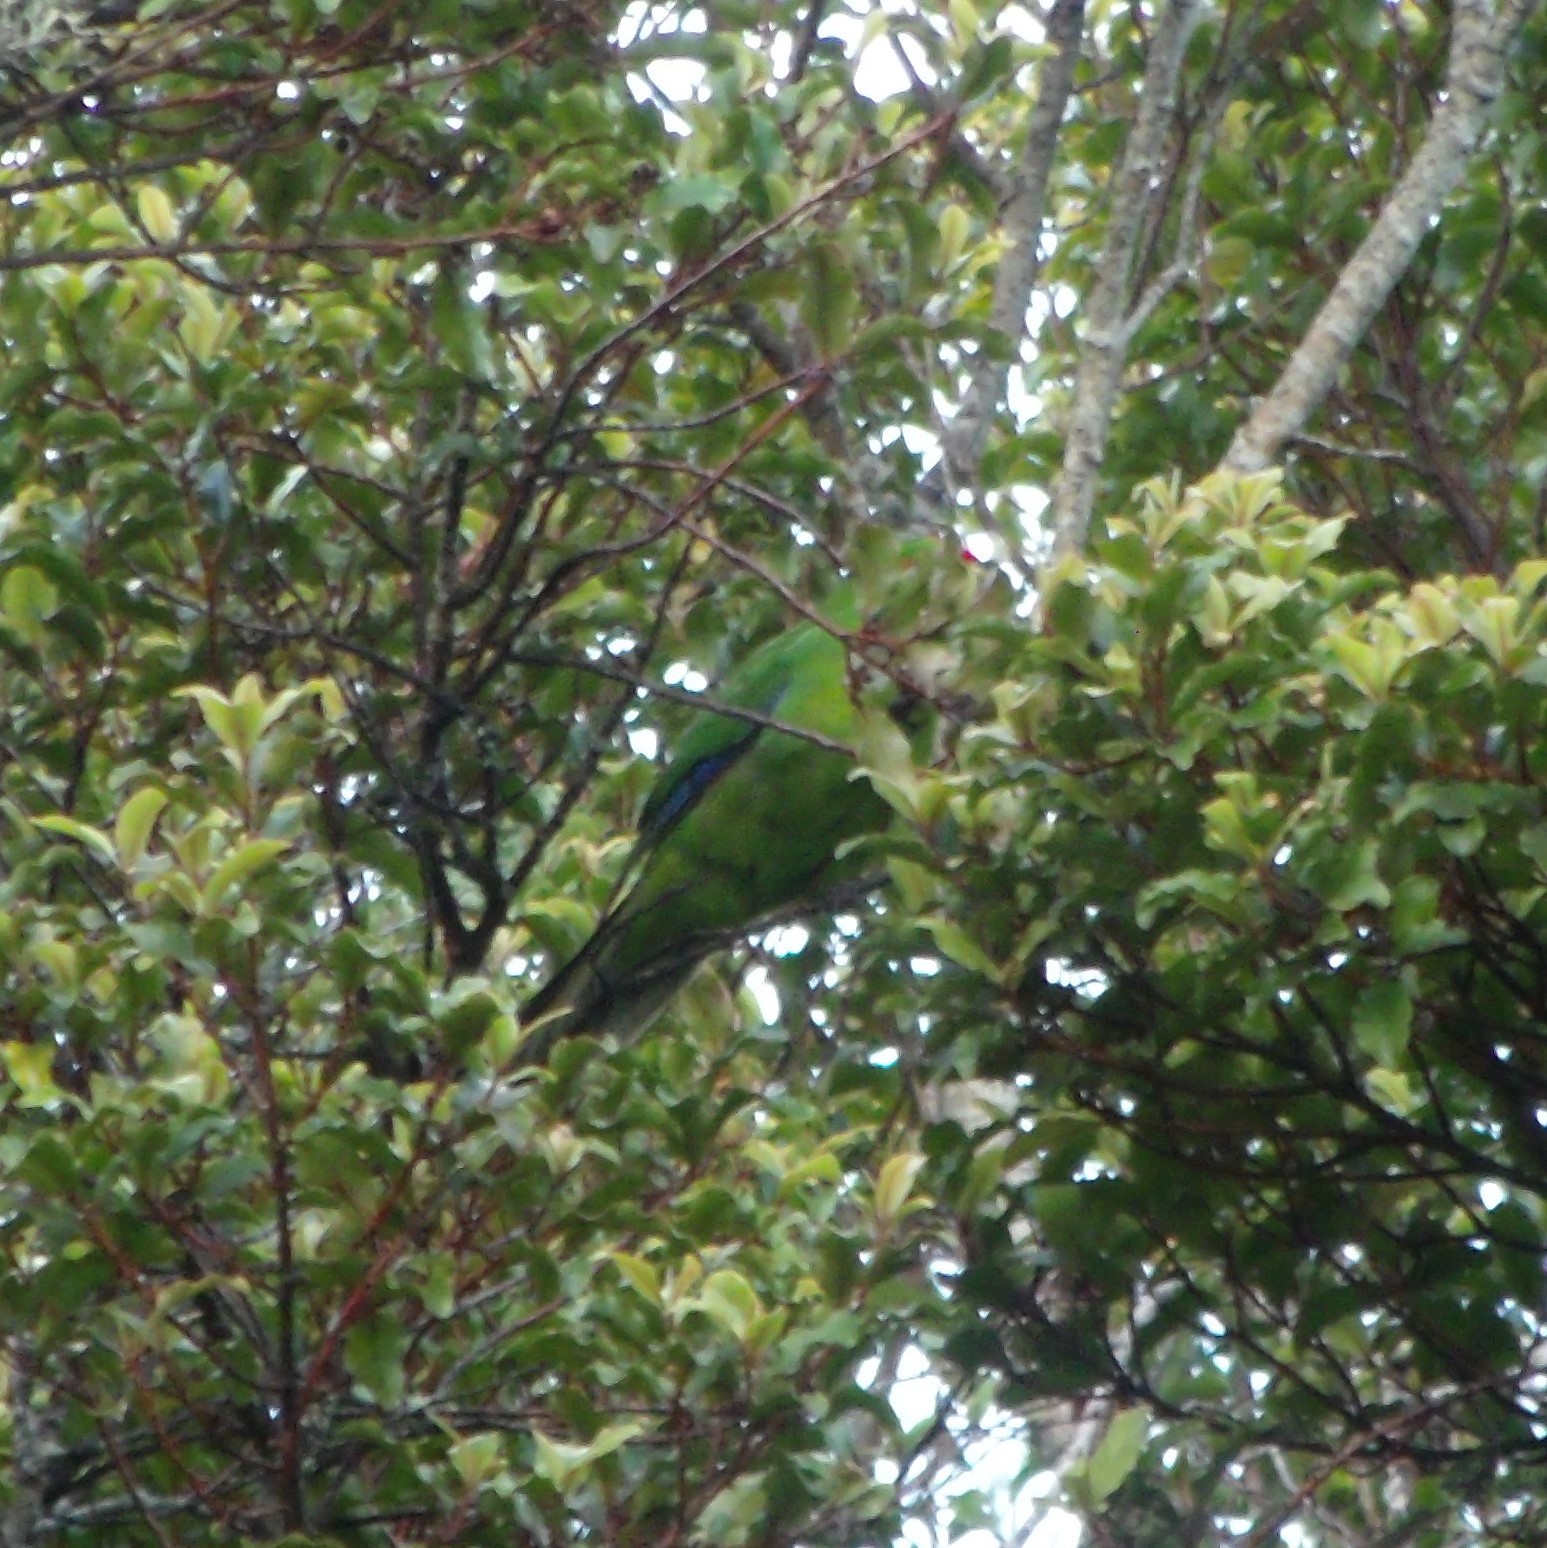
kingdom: Animalia
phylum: Chordata
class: Aves
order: Psittaciformes
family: Psittacidae
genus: Cyanoramphus
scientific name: Cyanoramphus novaezelandiae
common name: Red-fronted parakeet
